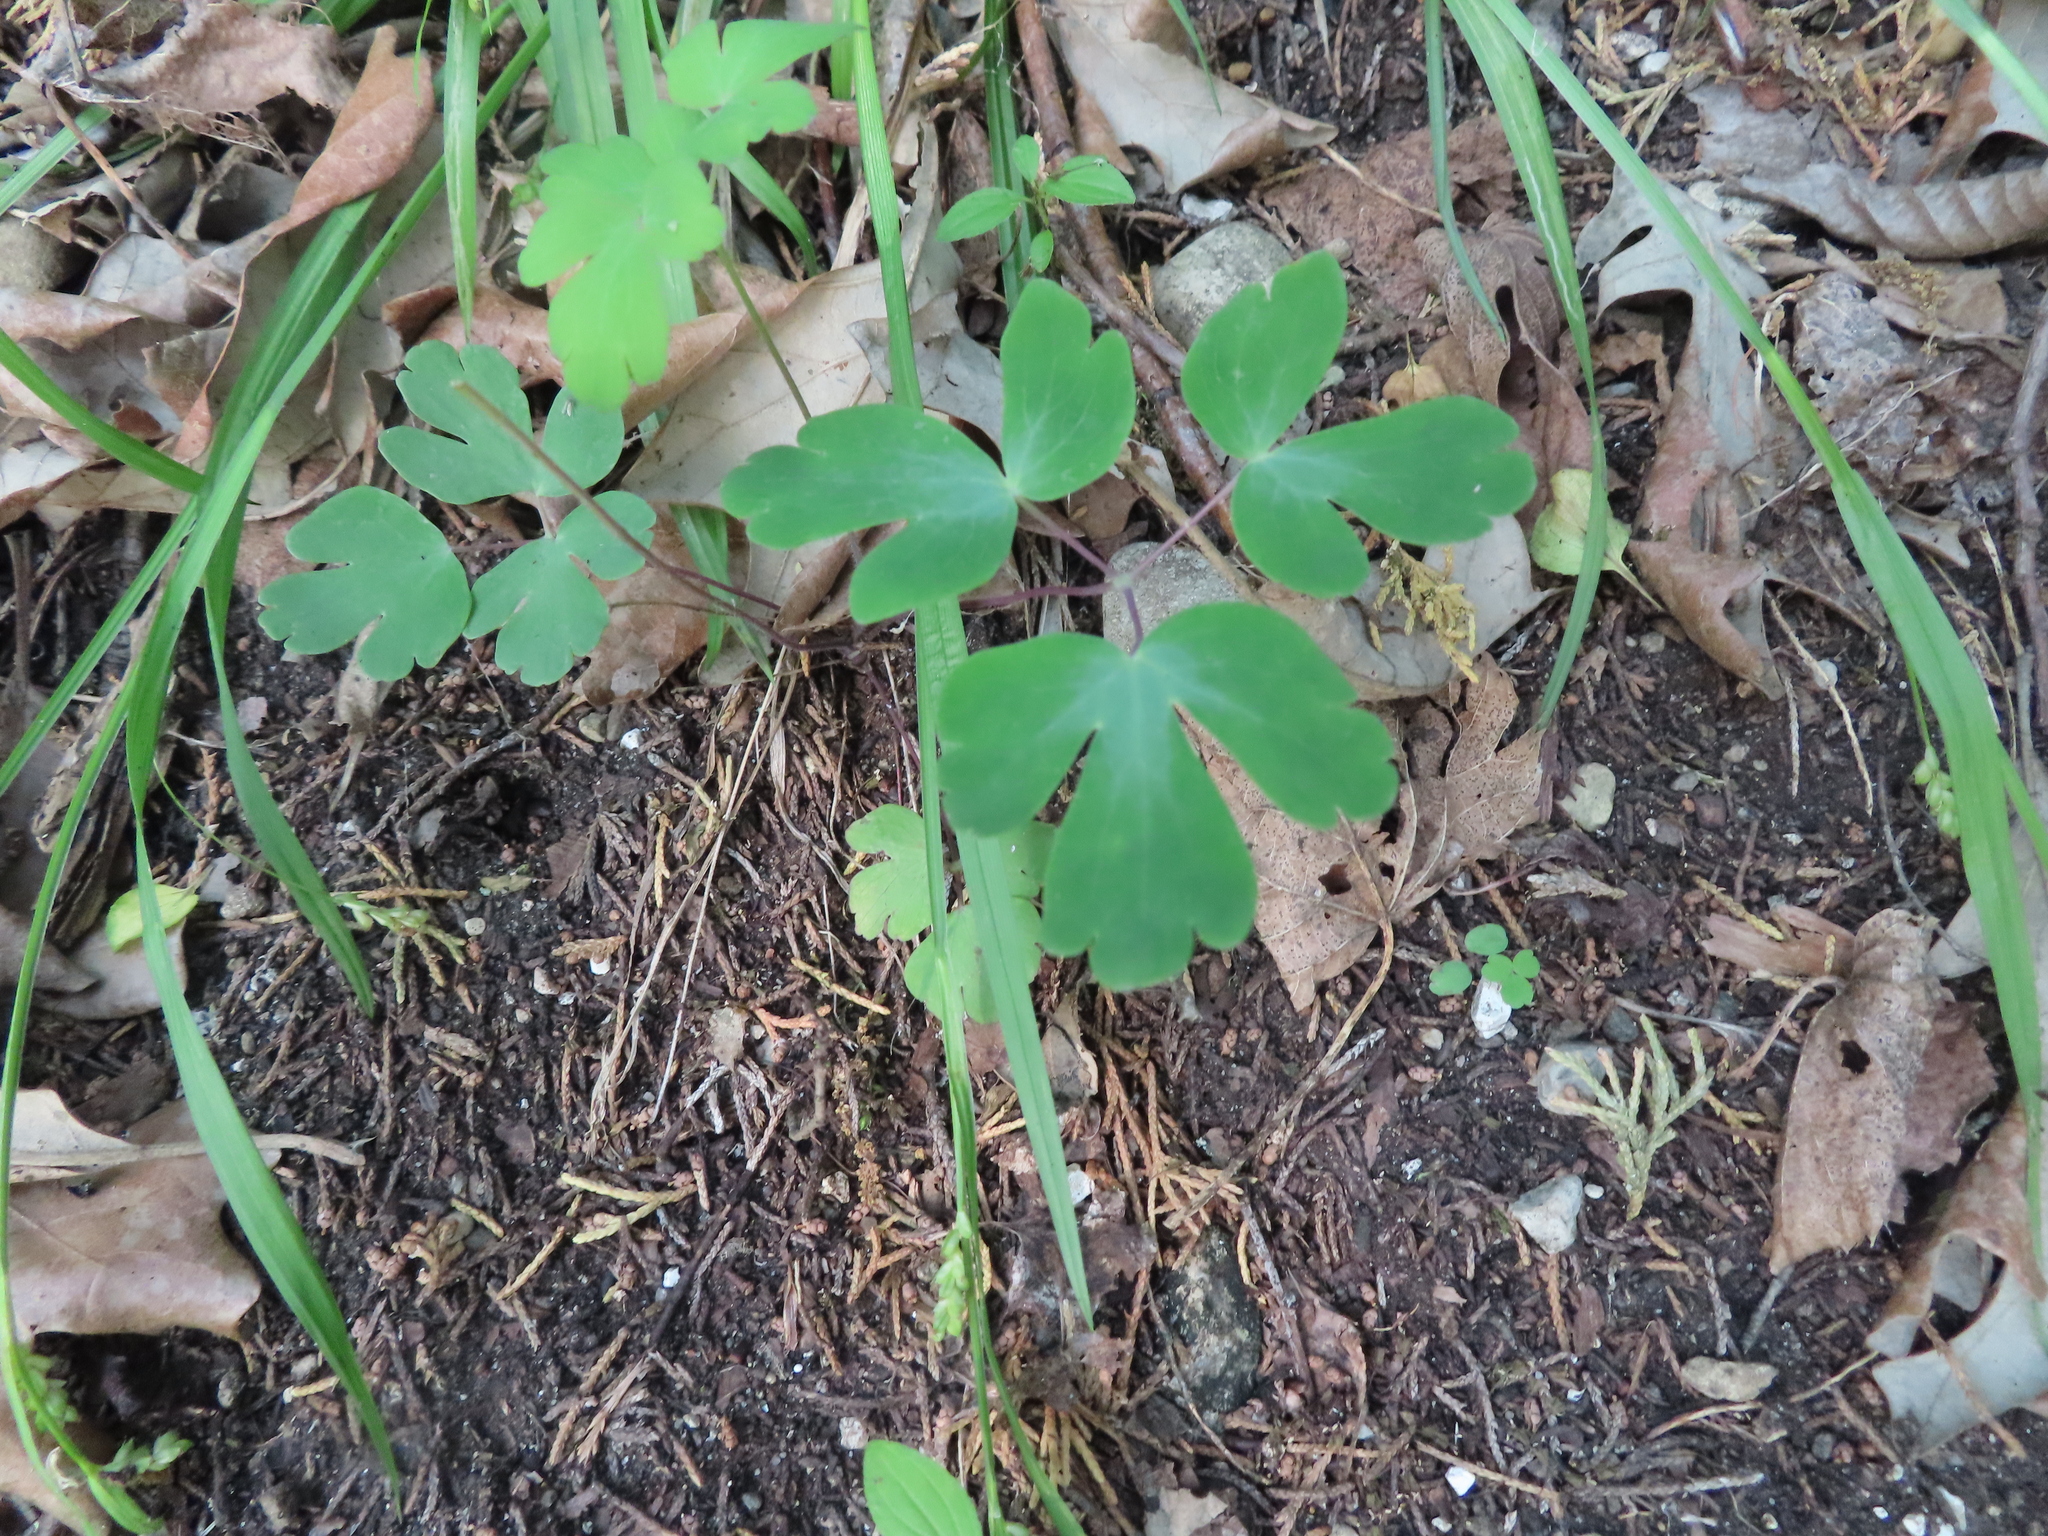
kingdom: Plantae
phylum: Tracheophyta
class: Magnoliopsida
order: Ranunculales
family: Ranunculaceae
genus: Aquilegia
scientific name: Aquilegia canadensis
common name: American columbine
